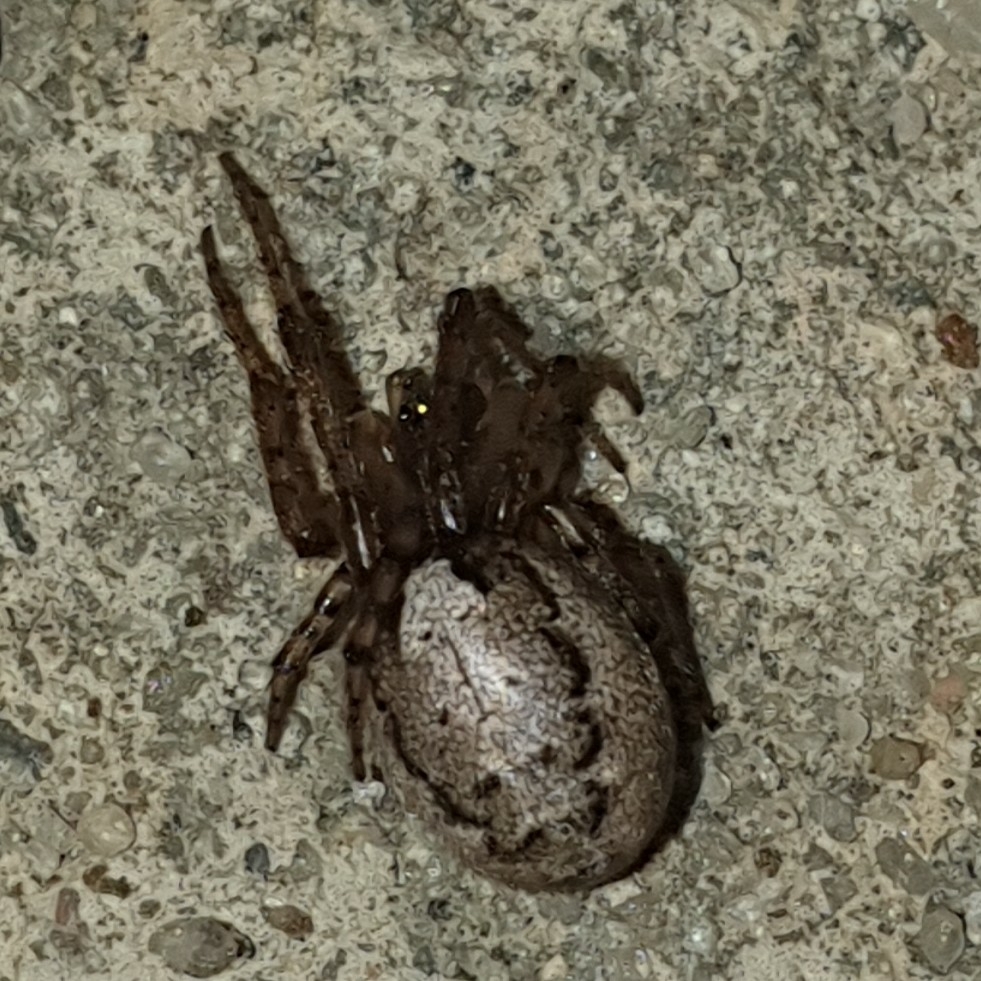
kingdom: Animalia
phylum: Arthropoda
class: Arachnida
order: Araneae
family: Araneidae
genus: Zygiella
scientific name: Zygiella x-notata
